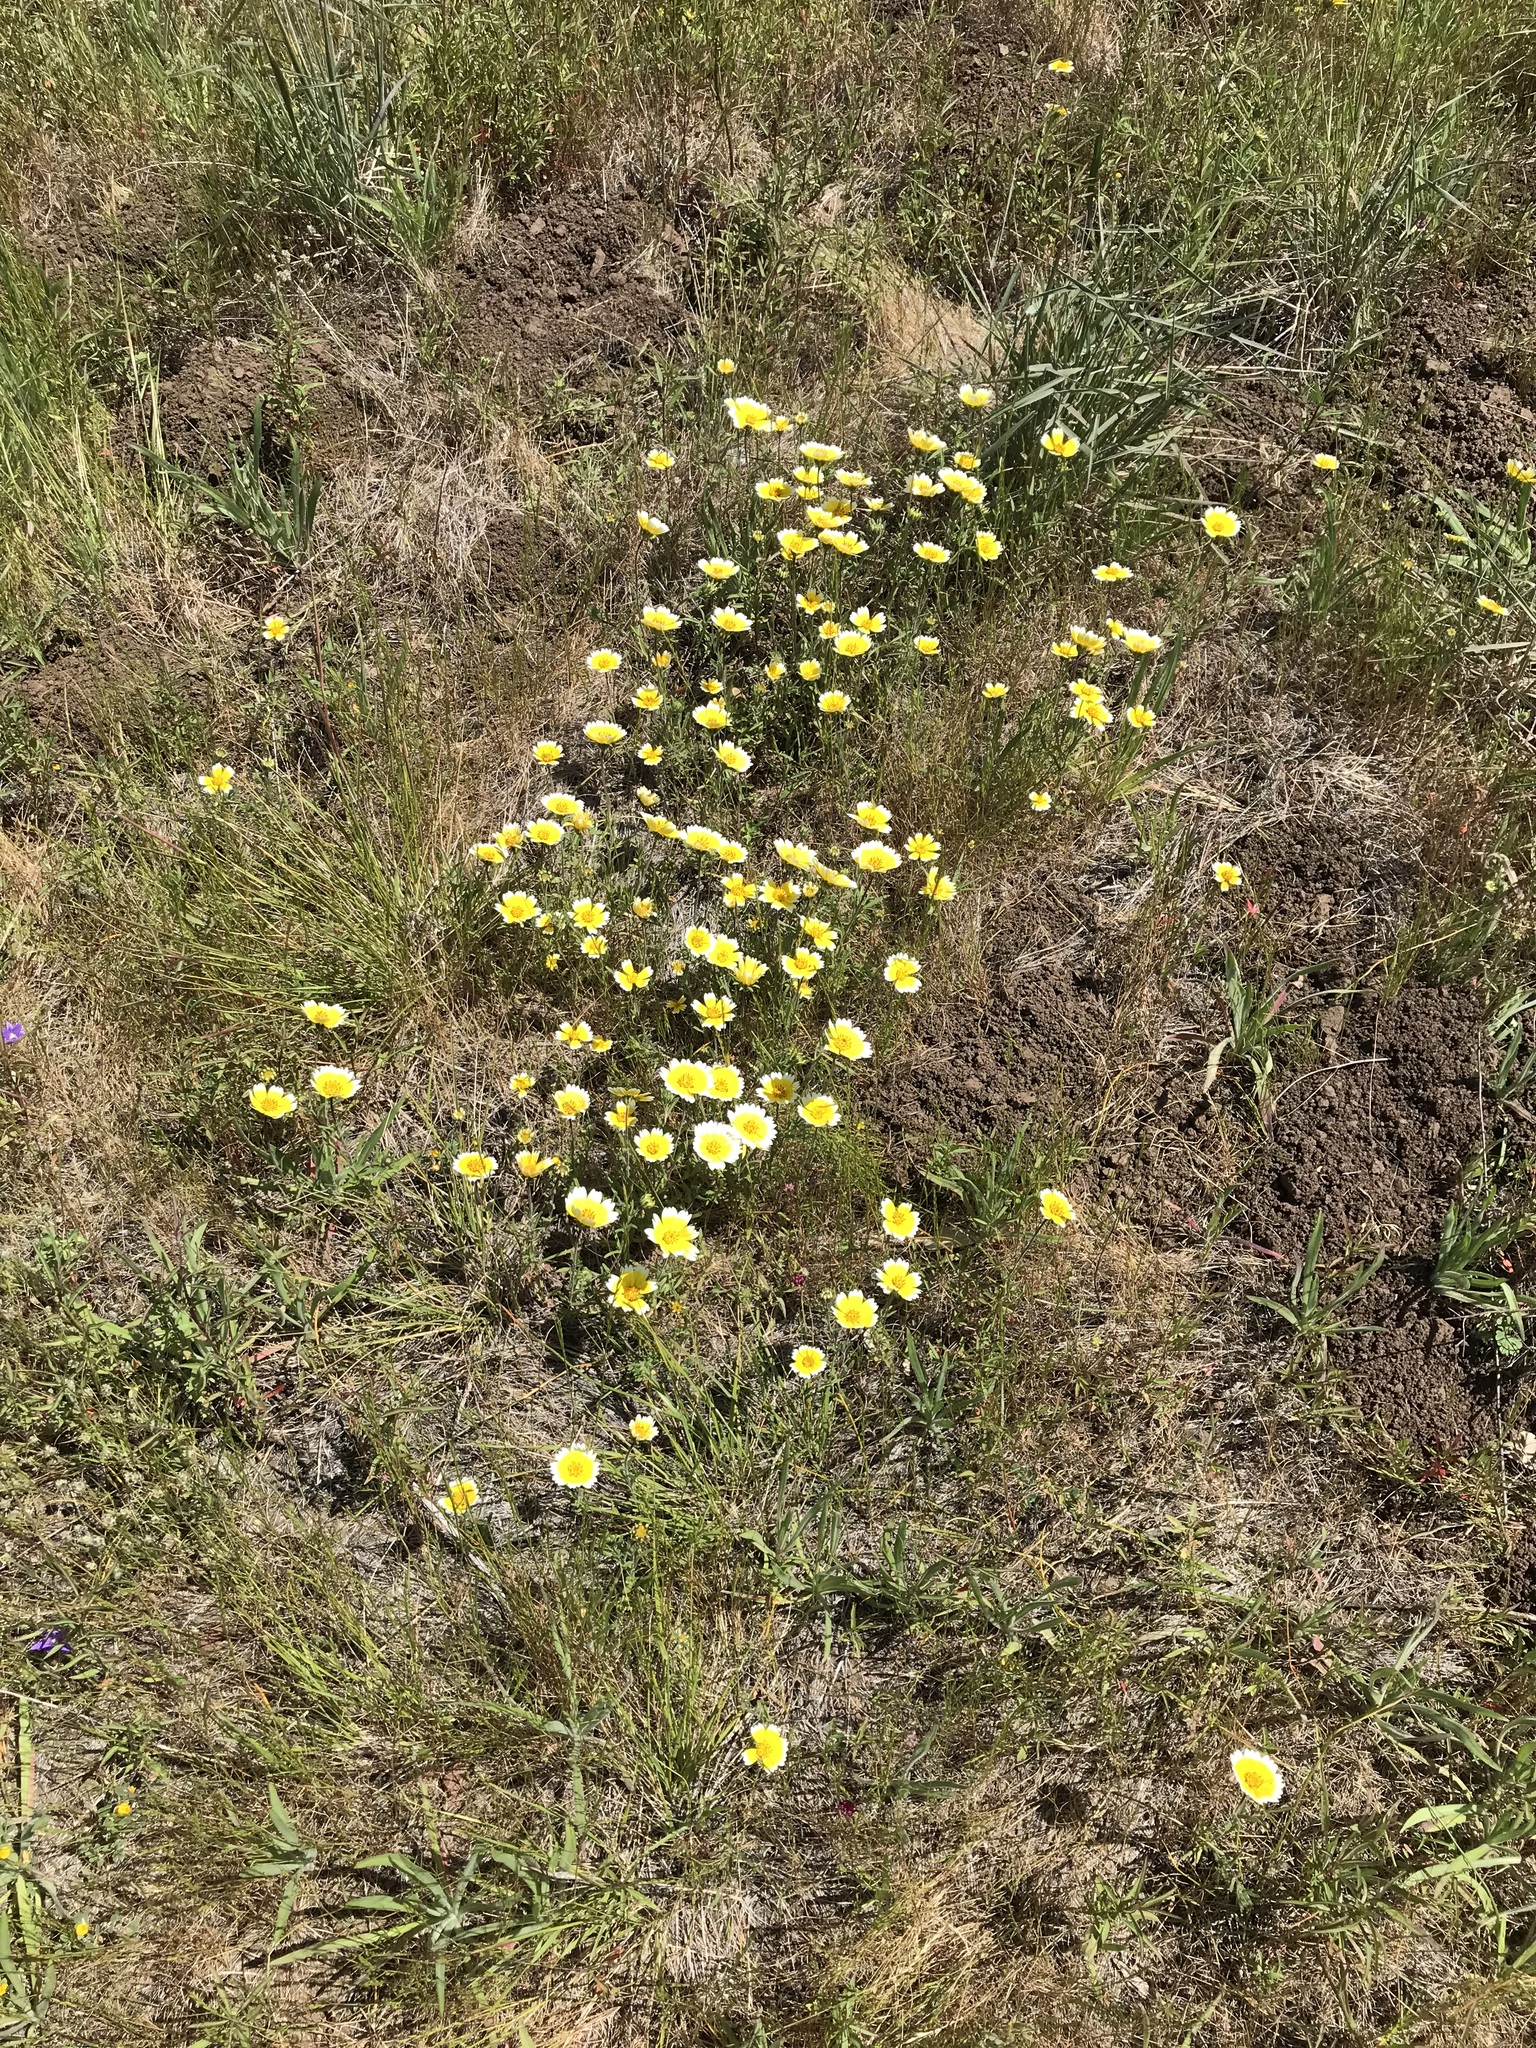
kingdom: Plantae
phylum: Tracheophyta
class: Magnoliopsida
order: Asterales
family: Asteraceae
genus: Layia
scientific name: Layia platyglossa
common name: Tidy-tips
